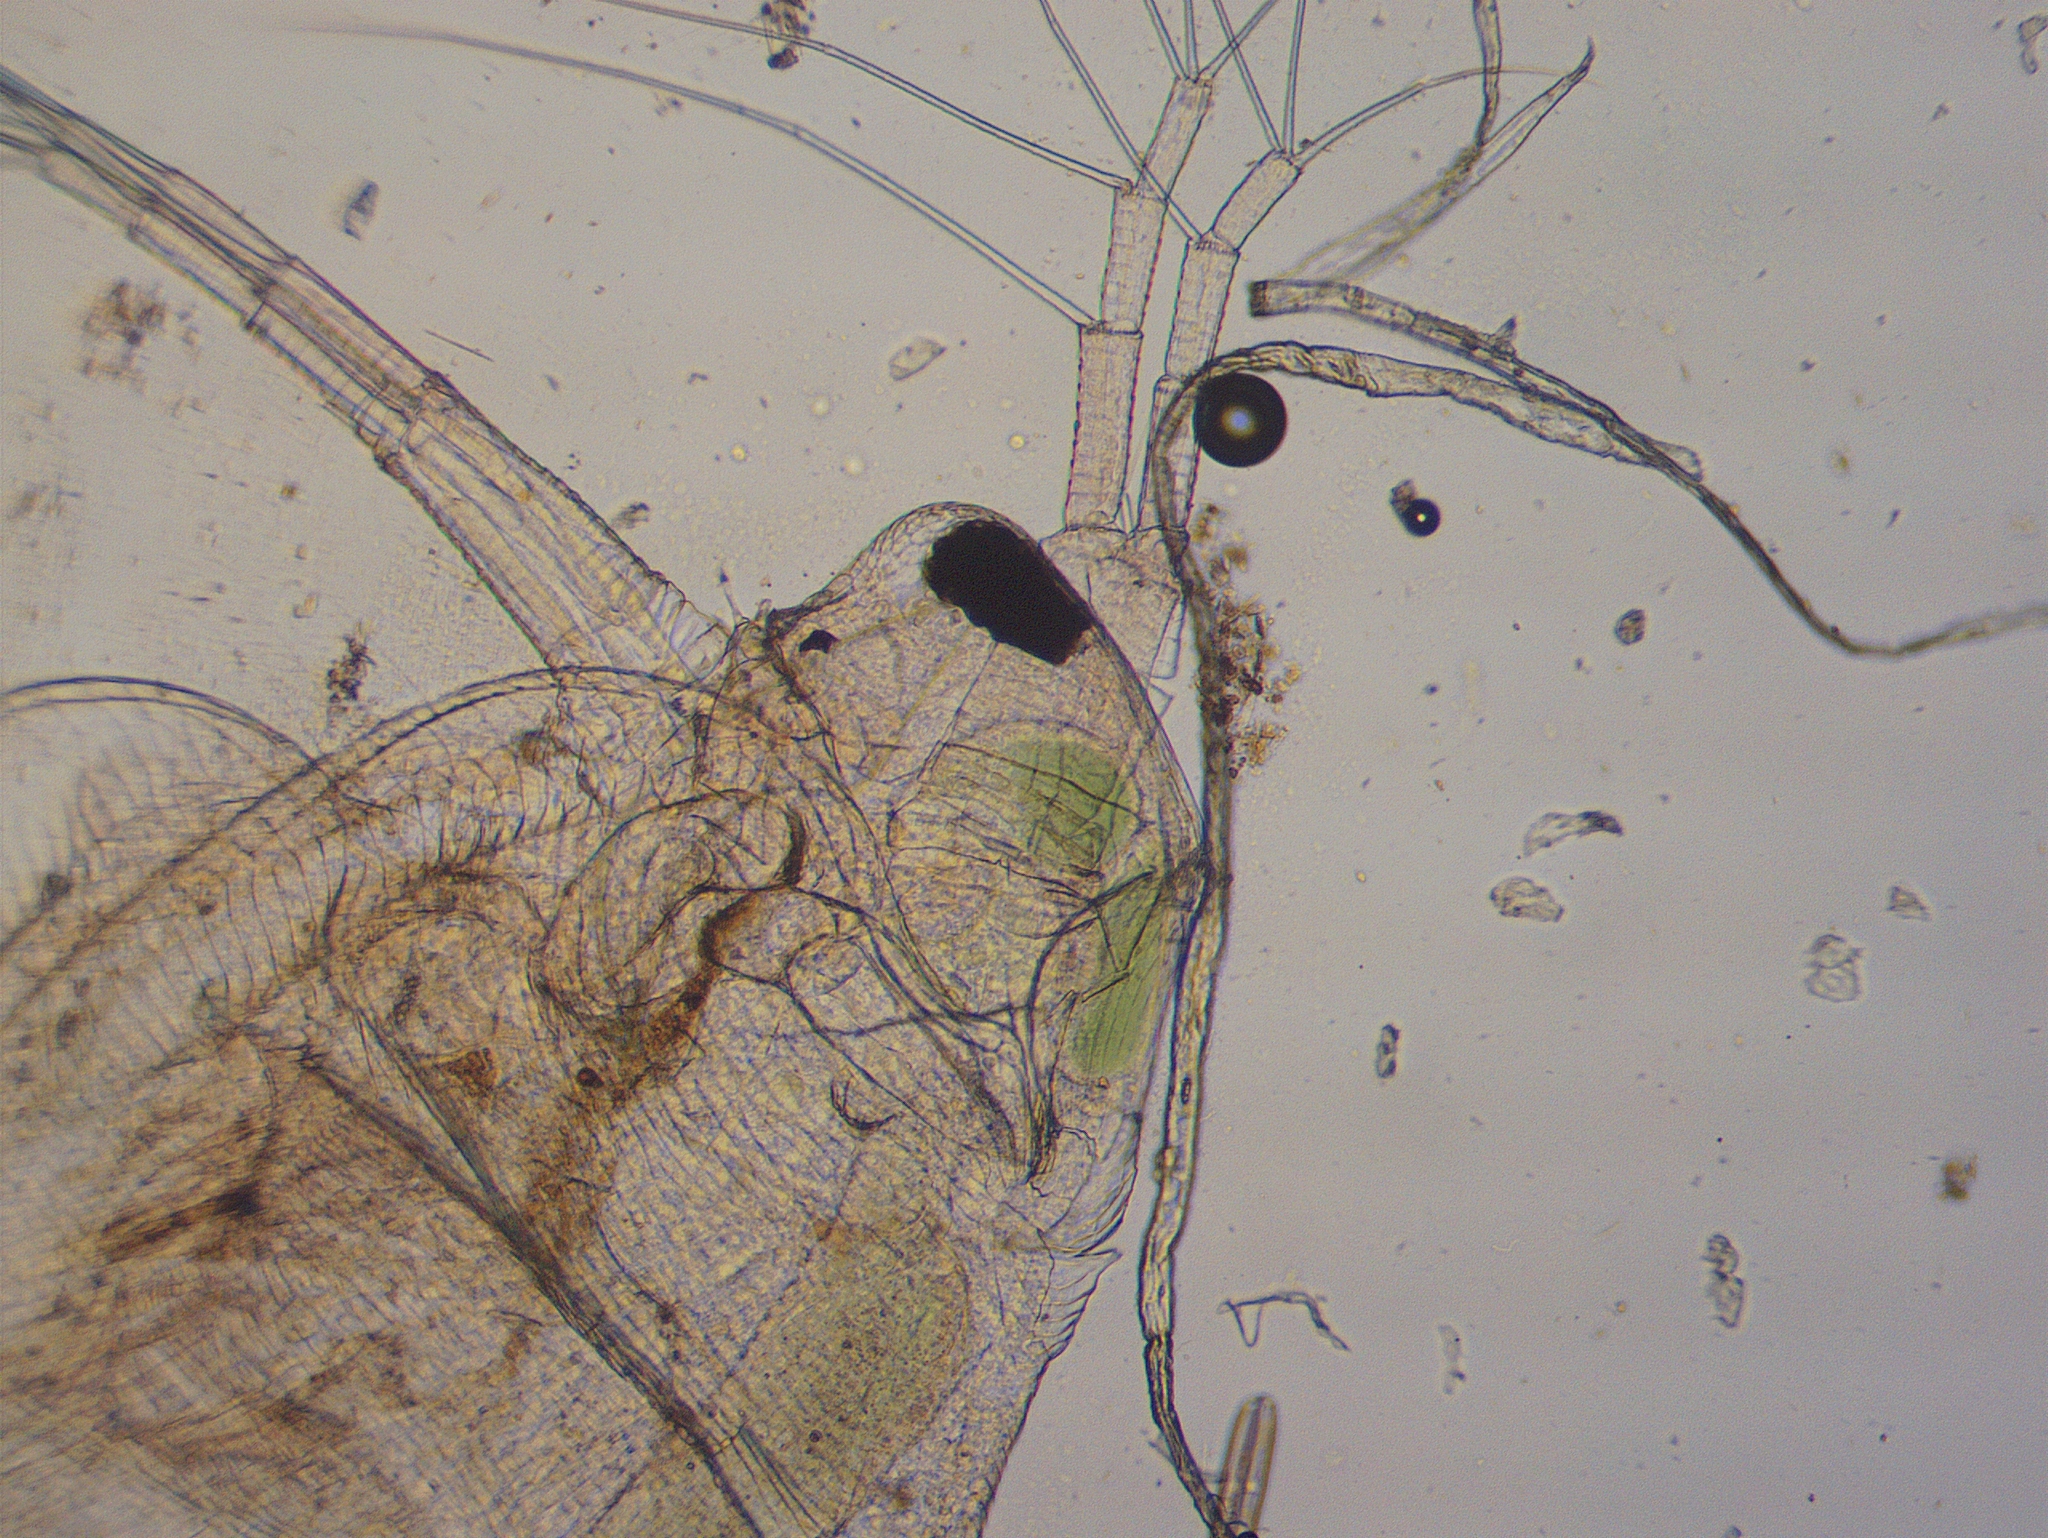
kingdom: Animalia
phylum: Arthropoda
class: Branchiopoda
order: Diplostraca
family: Daphniidae
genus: Simocephalus
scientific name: Simocephalus exspinosus
